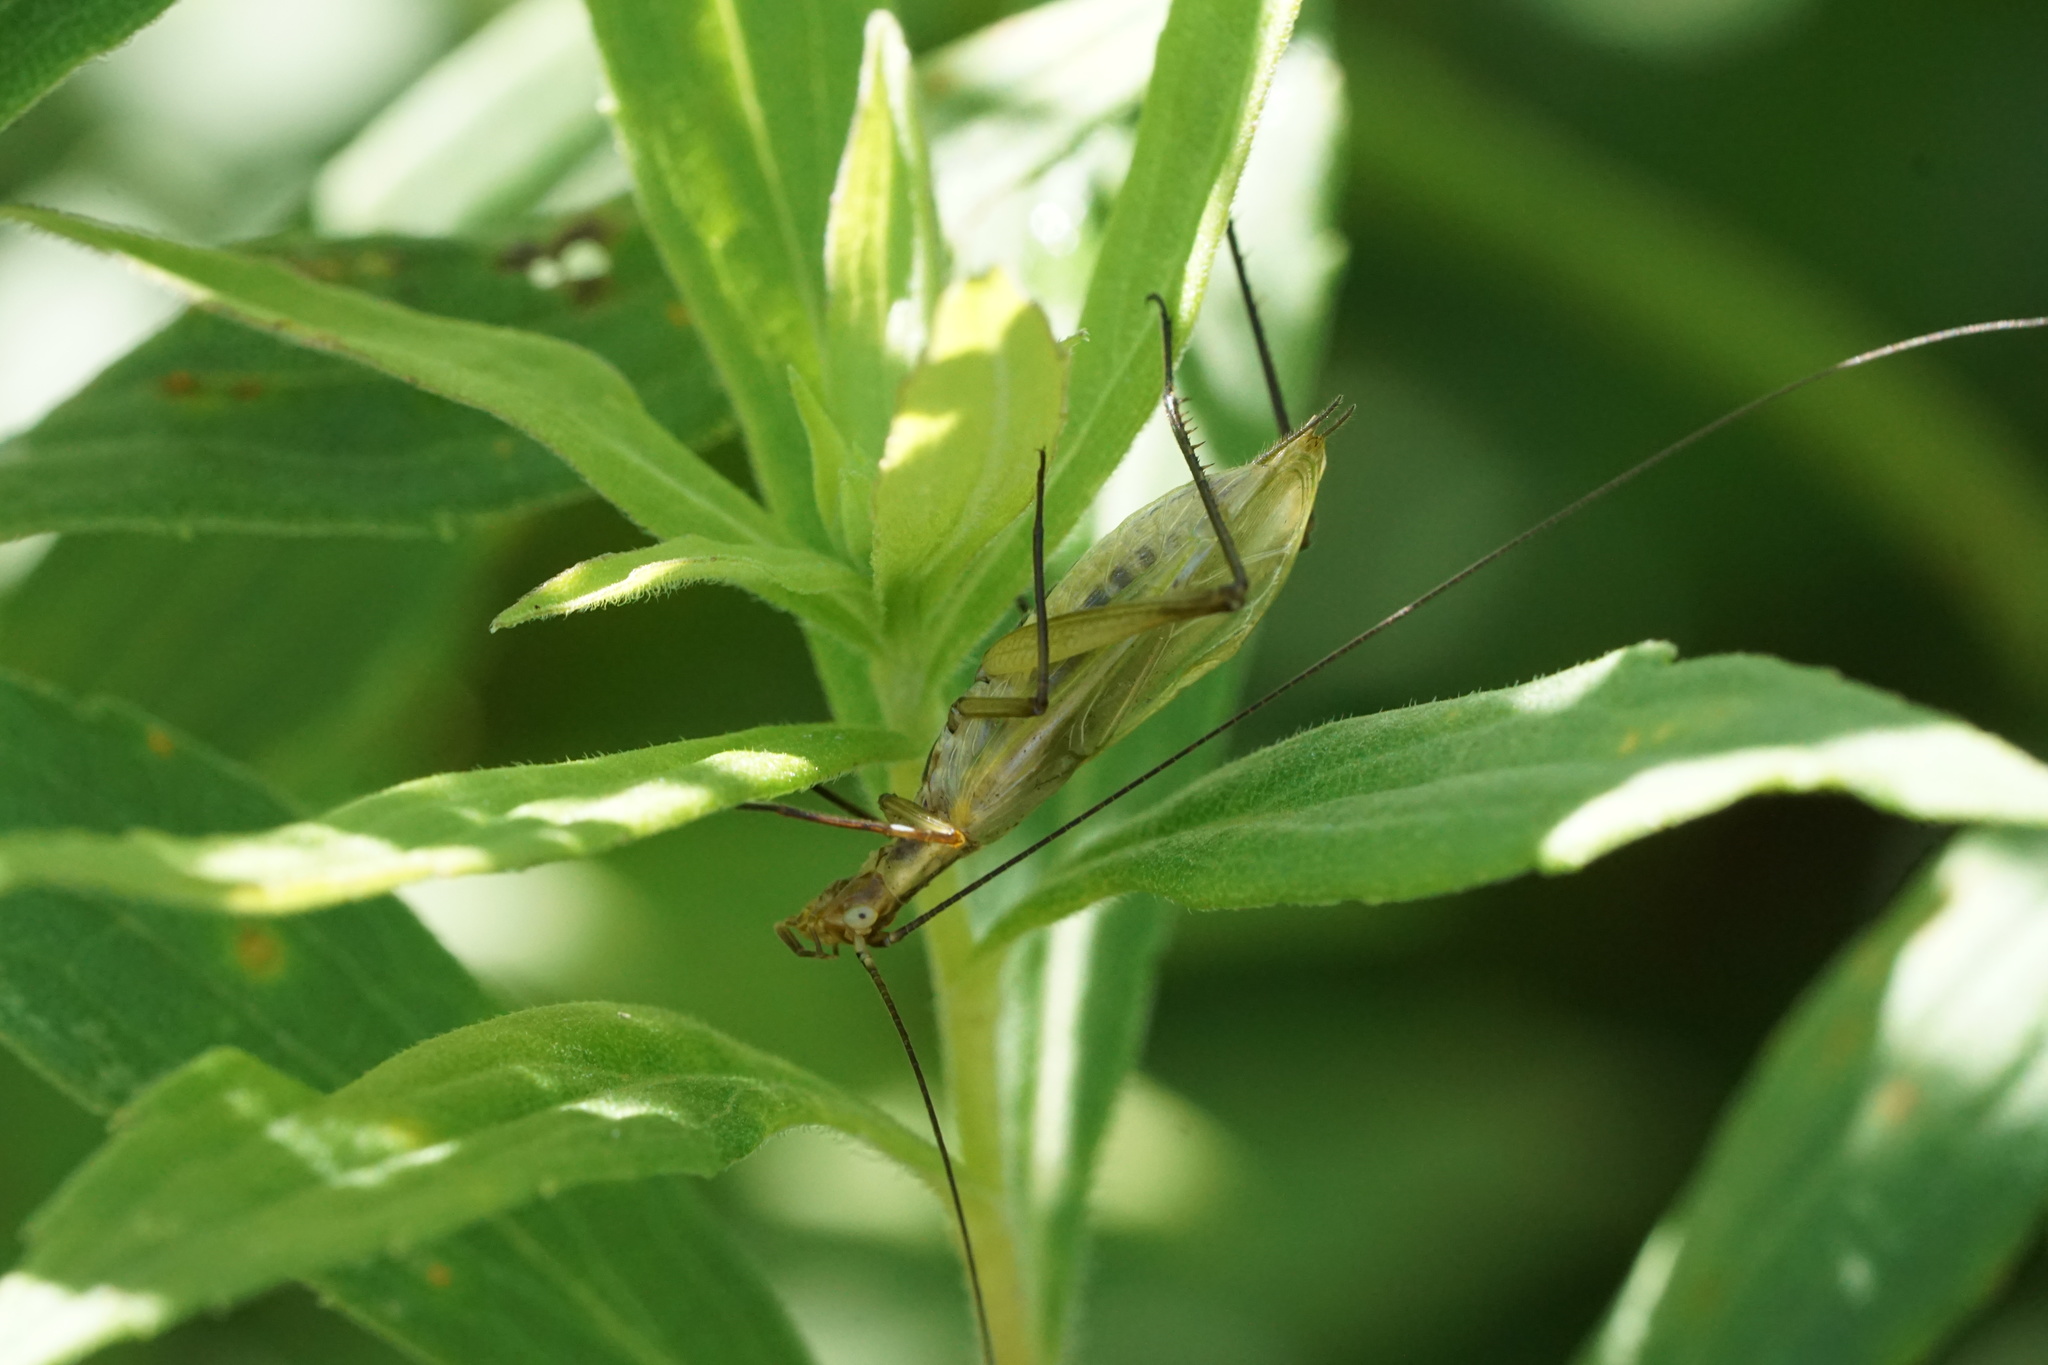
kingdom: Animalia
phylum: Arthropoda
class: Insecta
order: Orthoptera
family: Gryllidae
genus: Oecanthus
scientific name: Oecanthus nigricornis
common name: Black-horned tree cricket
